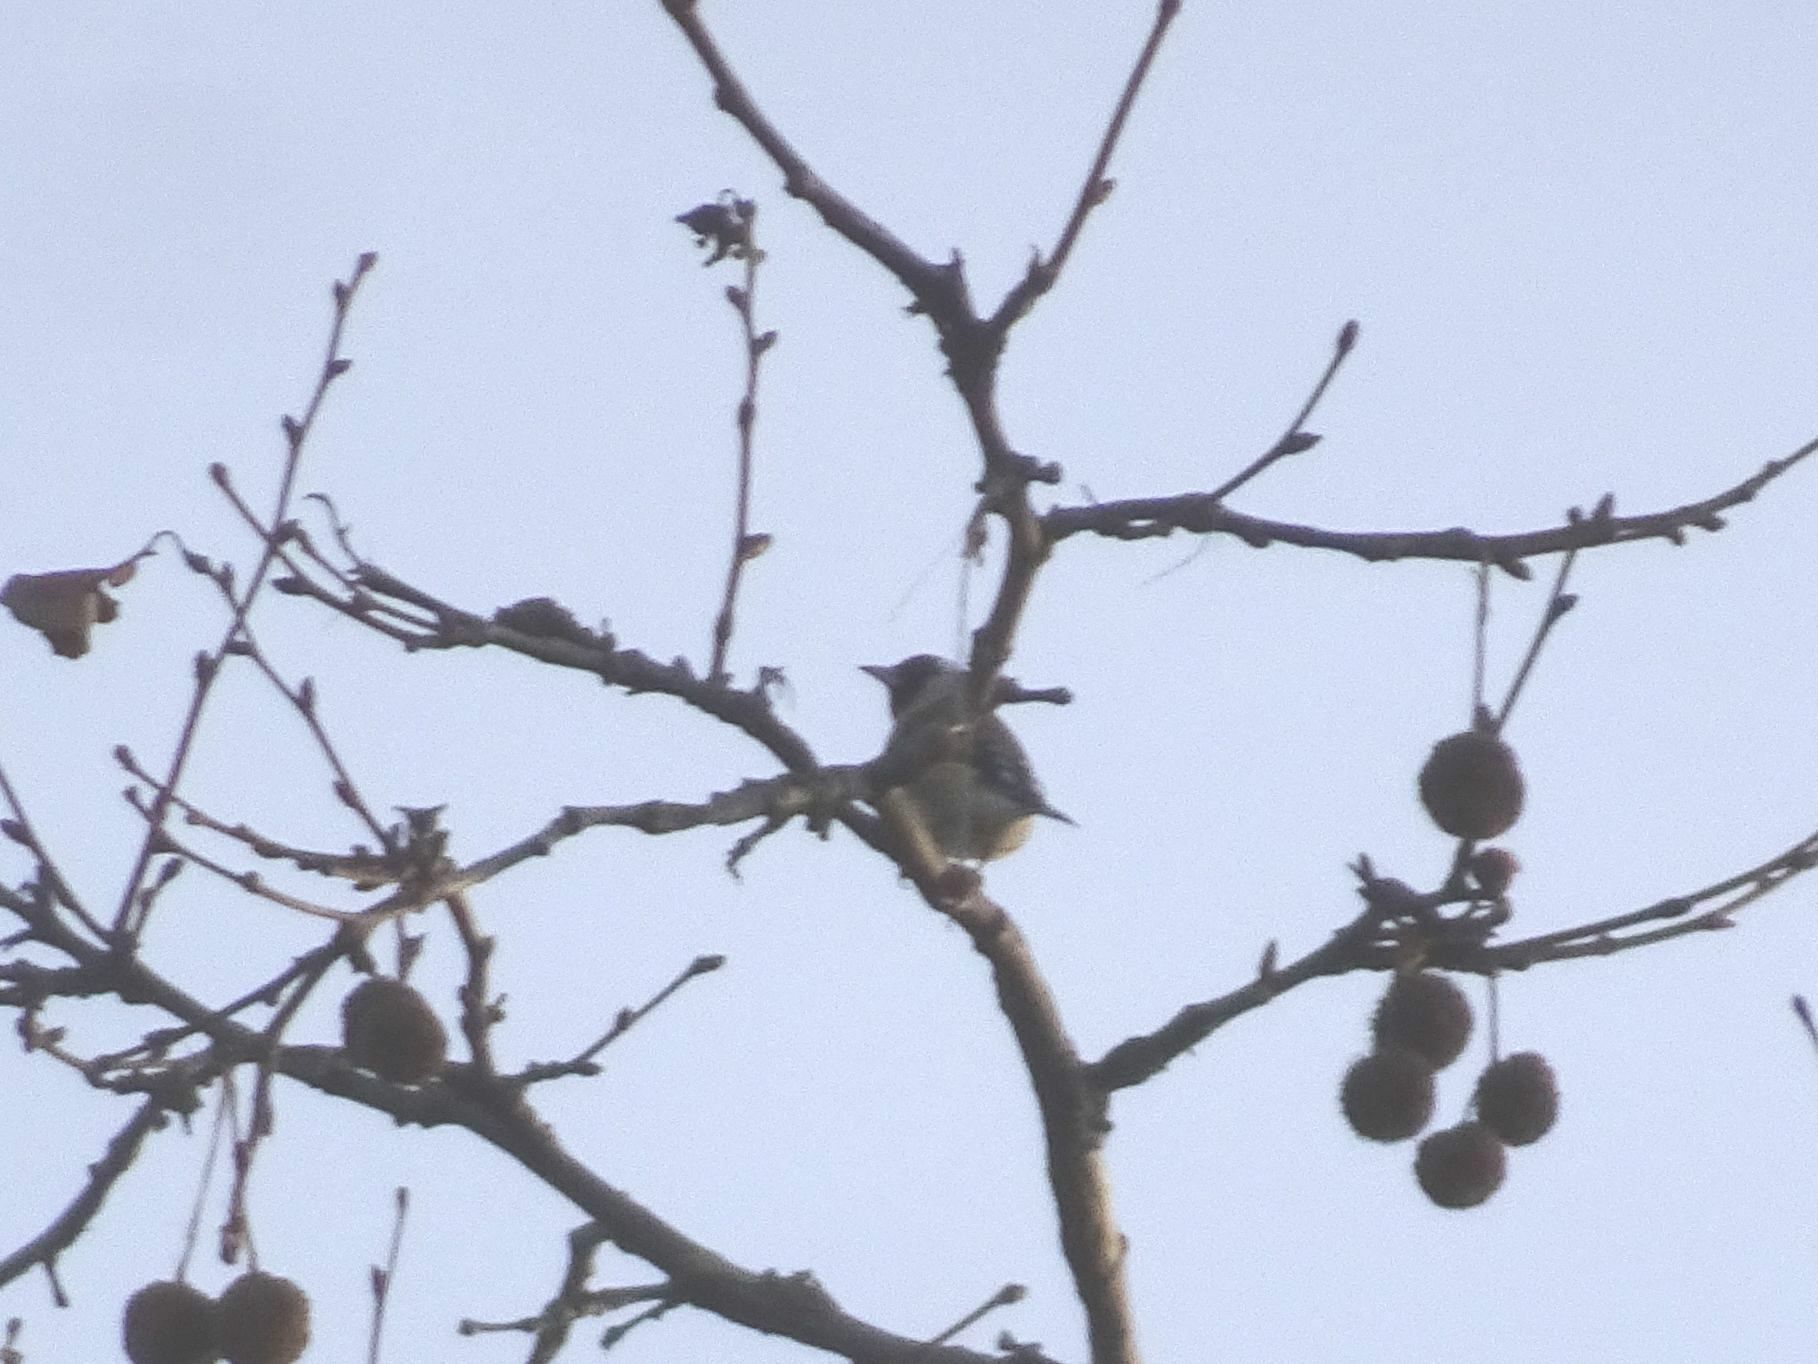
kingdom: Animalia
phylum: Chordata
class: Aves
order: Passeriformes
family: Fringillidae
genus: Carduelis
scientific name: Carduelis carduelis
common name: European goldfinch
